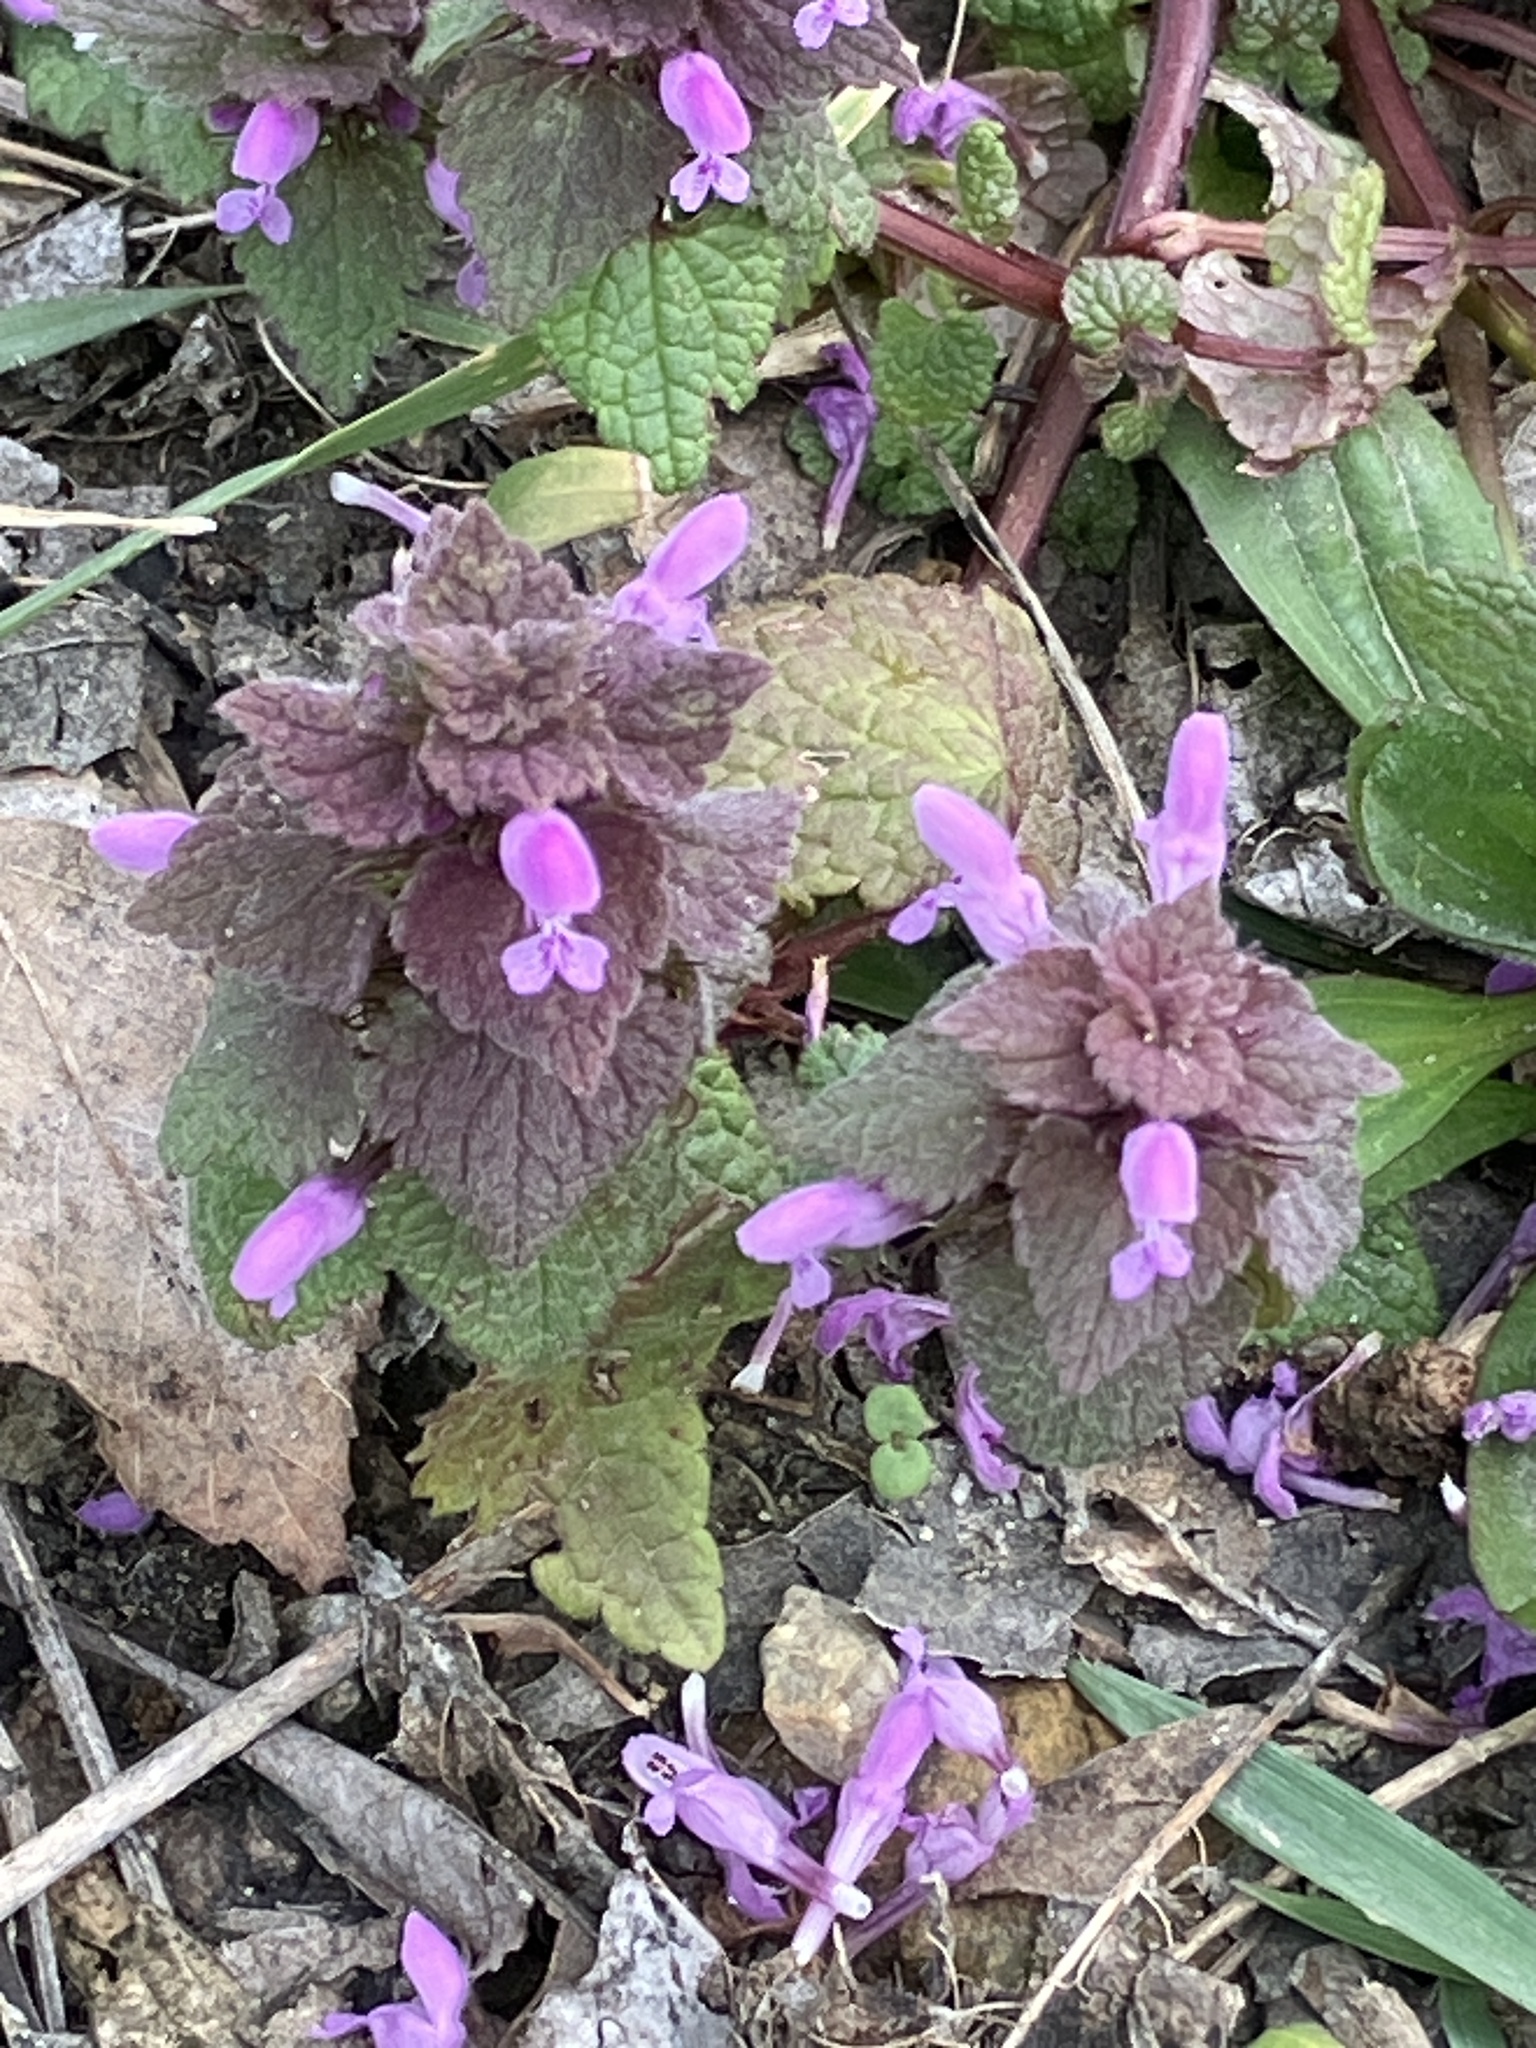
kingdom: Plantae
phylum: Tracheophyta
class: Magnoliopsida
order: Lamiales
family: Lamiaceae
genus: Lamium
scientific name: Lamium purpureum
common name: Red dead-nettle
